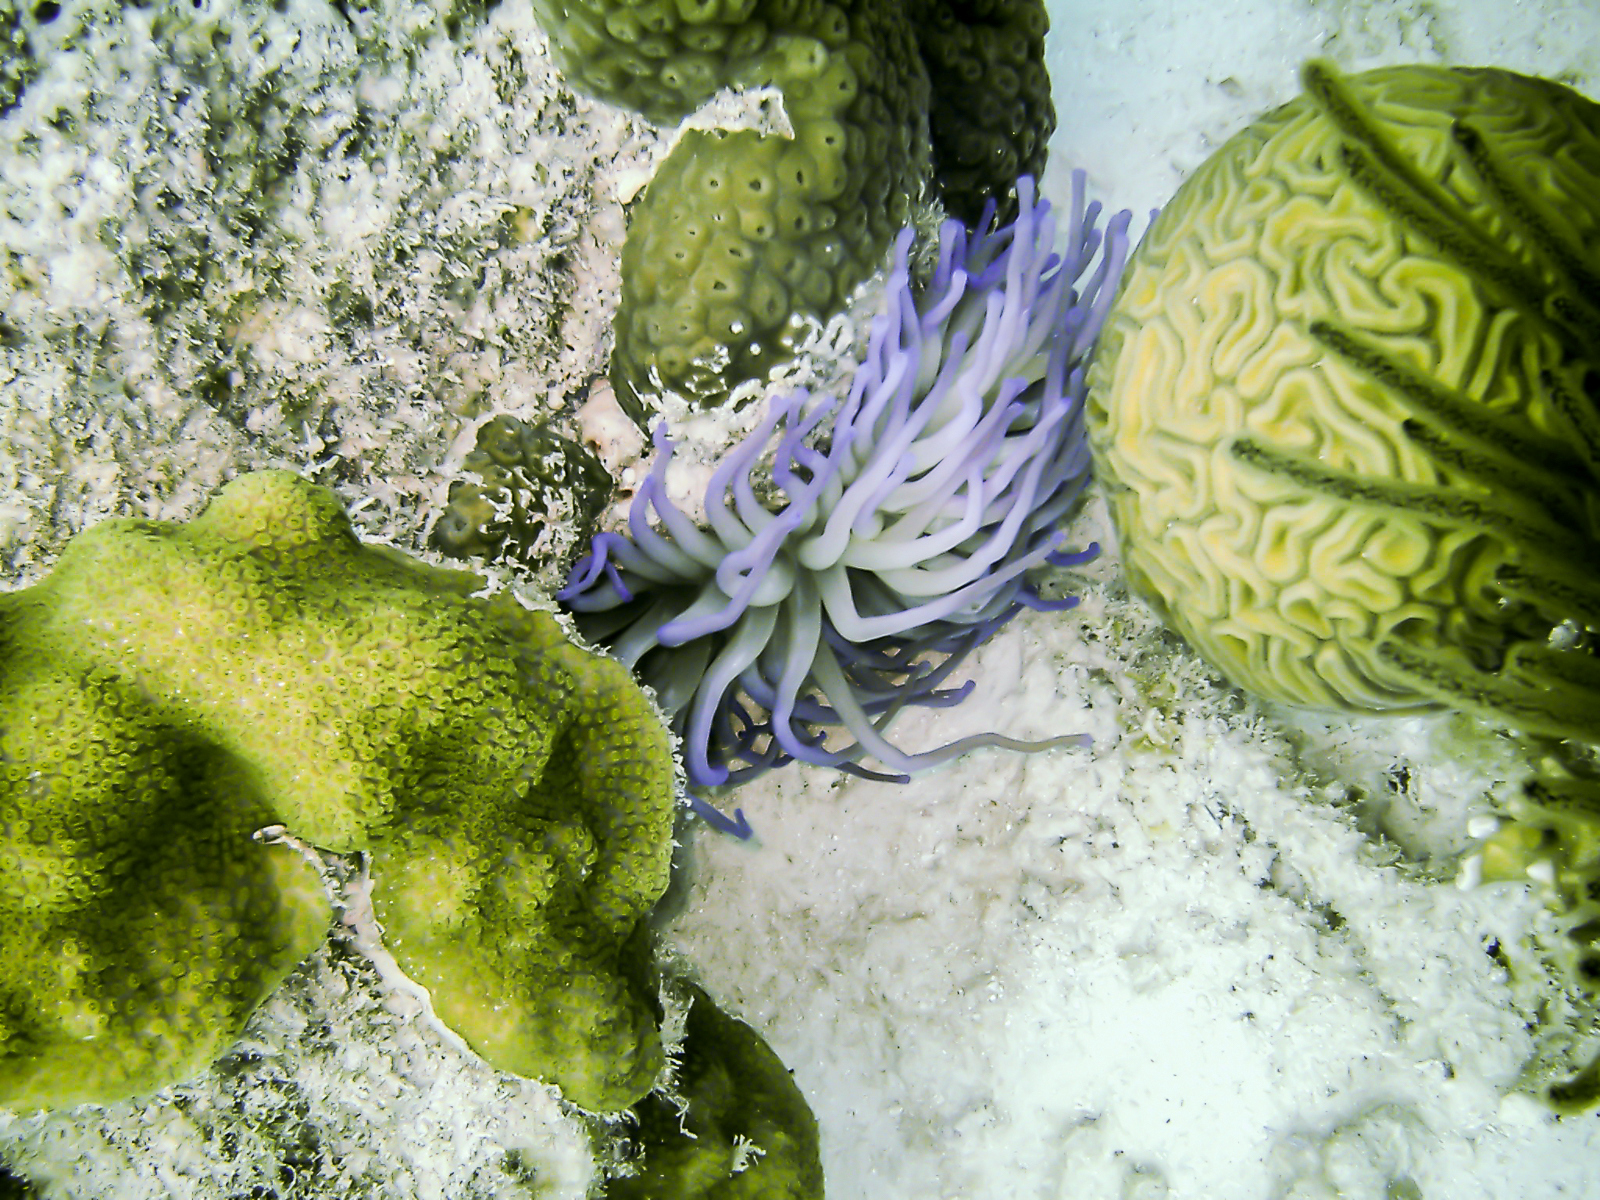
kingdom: Animalia
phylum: Cnidaria
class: Anthozoa
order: Actiniaria
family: Actiniidae
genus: Condylactis
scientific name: Condylactis gigantea
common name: Giant caribbean anemone
